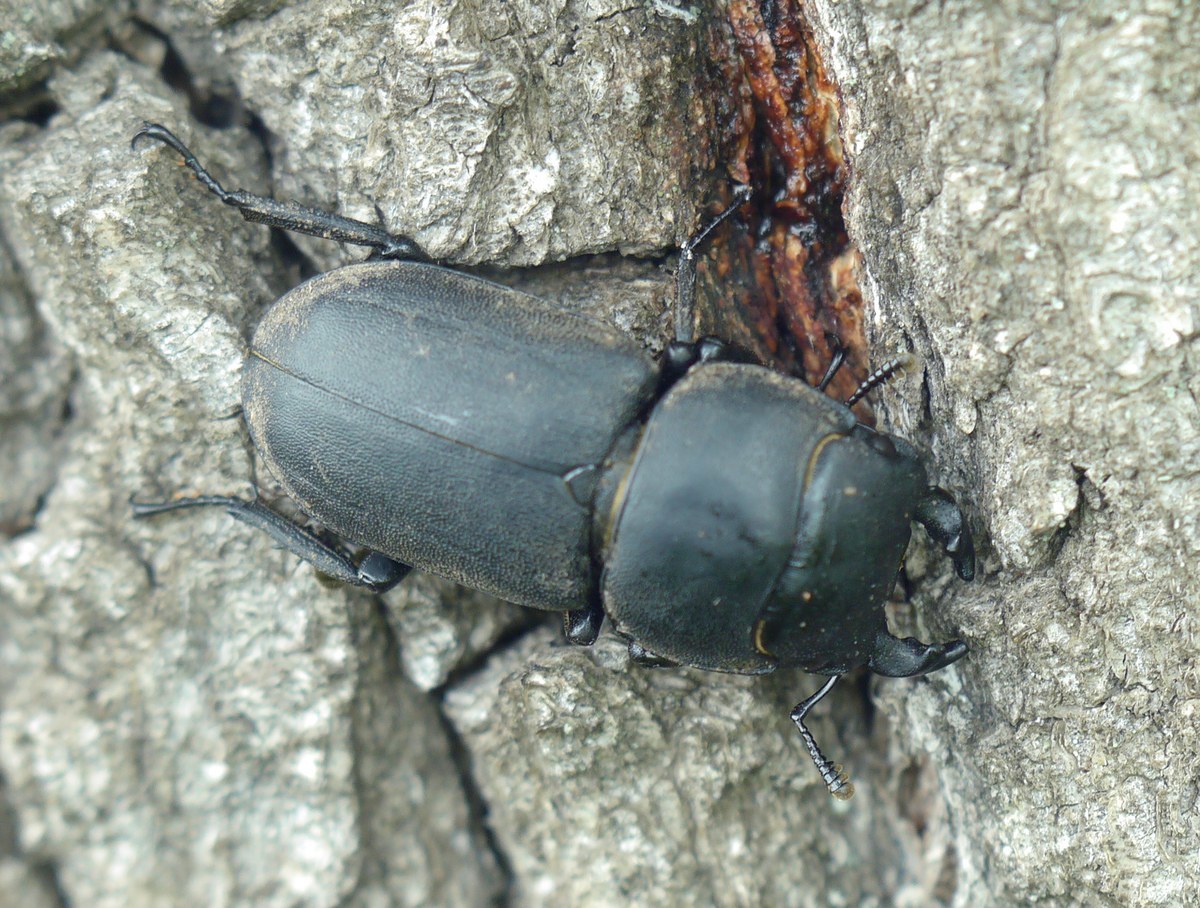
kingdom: Animalia
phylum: Arthropoda
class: Insecta
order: Coleoptera
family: Lucanidae
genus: Dorcus
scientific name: Dorcus parallelipipedus
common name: Lesser stag beetle
